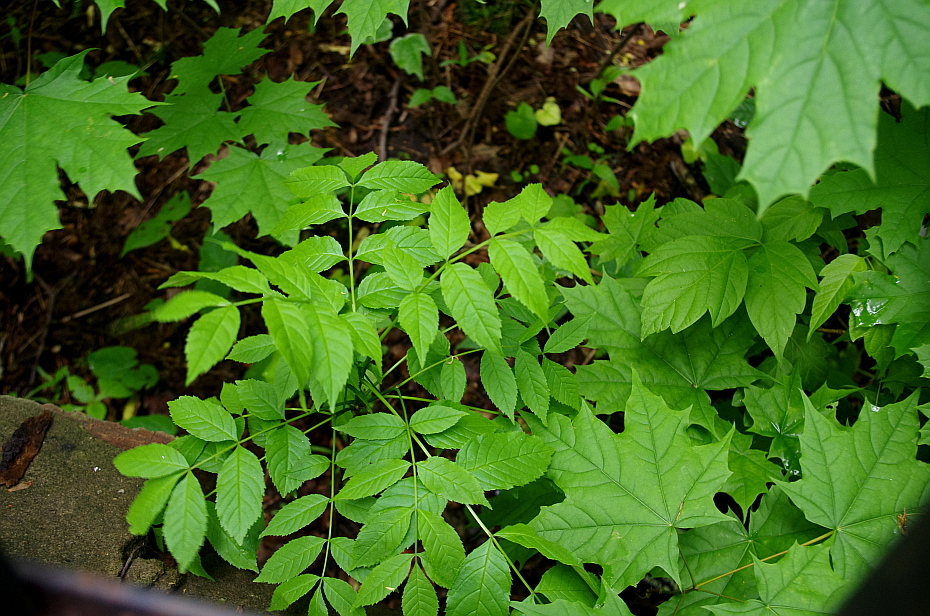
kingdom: Plantae
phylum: Tracheophyta
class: Magnoliopsida
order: Lamiales
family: Oleaceae
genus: Fraxinus
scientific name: Fraxinus excelsior
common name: European ash
